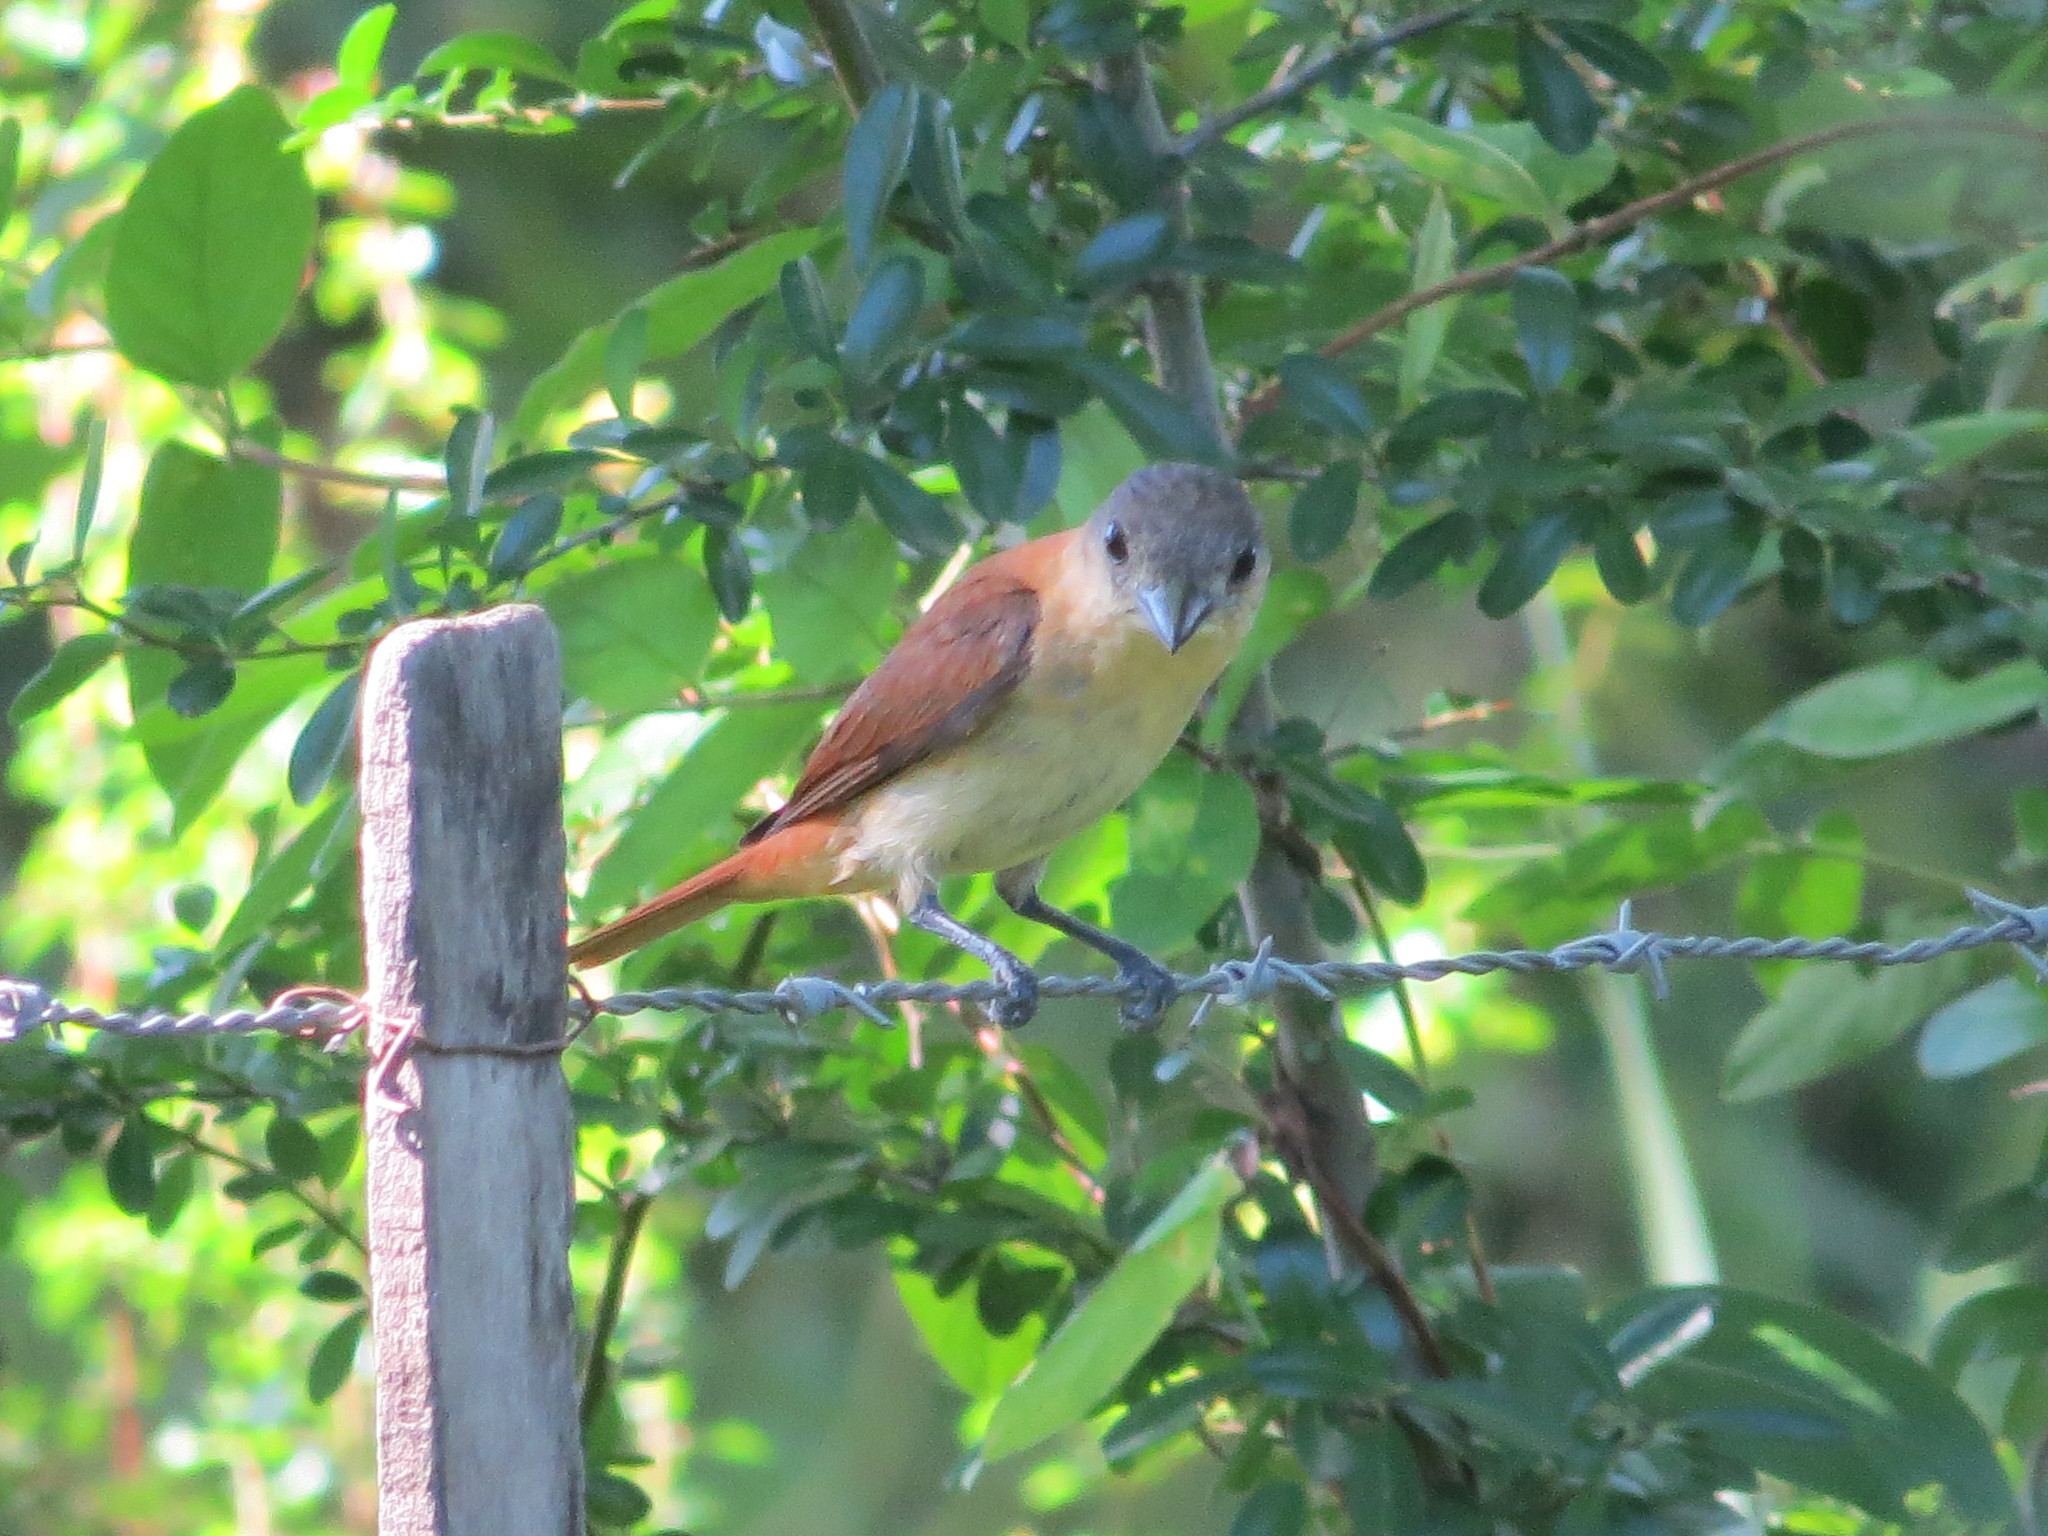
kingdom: Animalia
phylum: Chordata
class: Aves
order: Passeriformes
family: Cotingidae
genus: Pachyramphus
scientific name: Pachyramphus validus
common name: Crested becard
